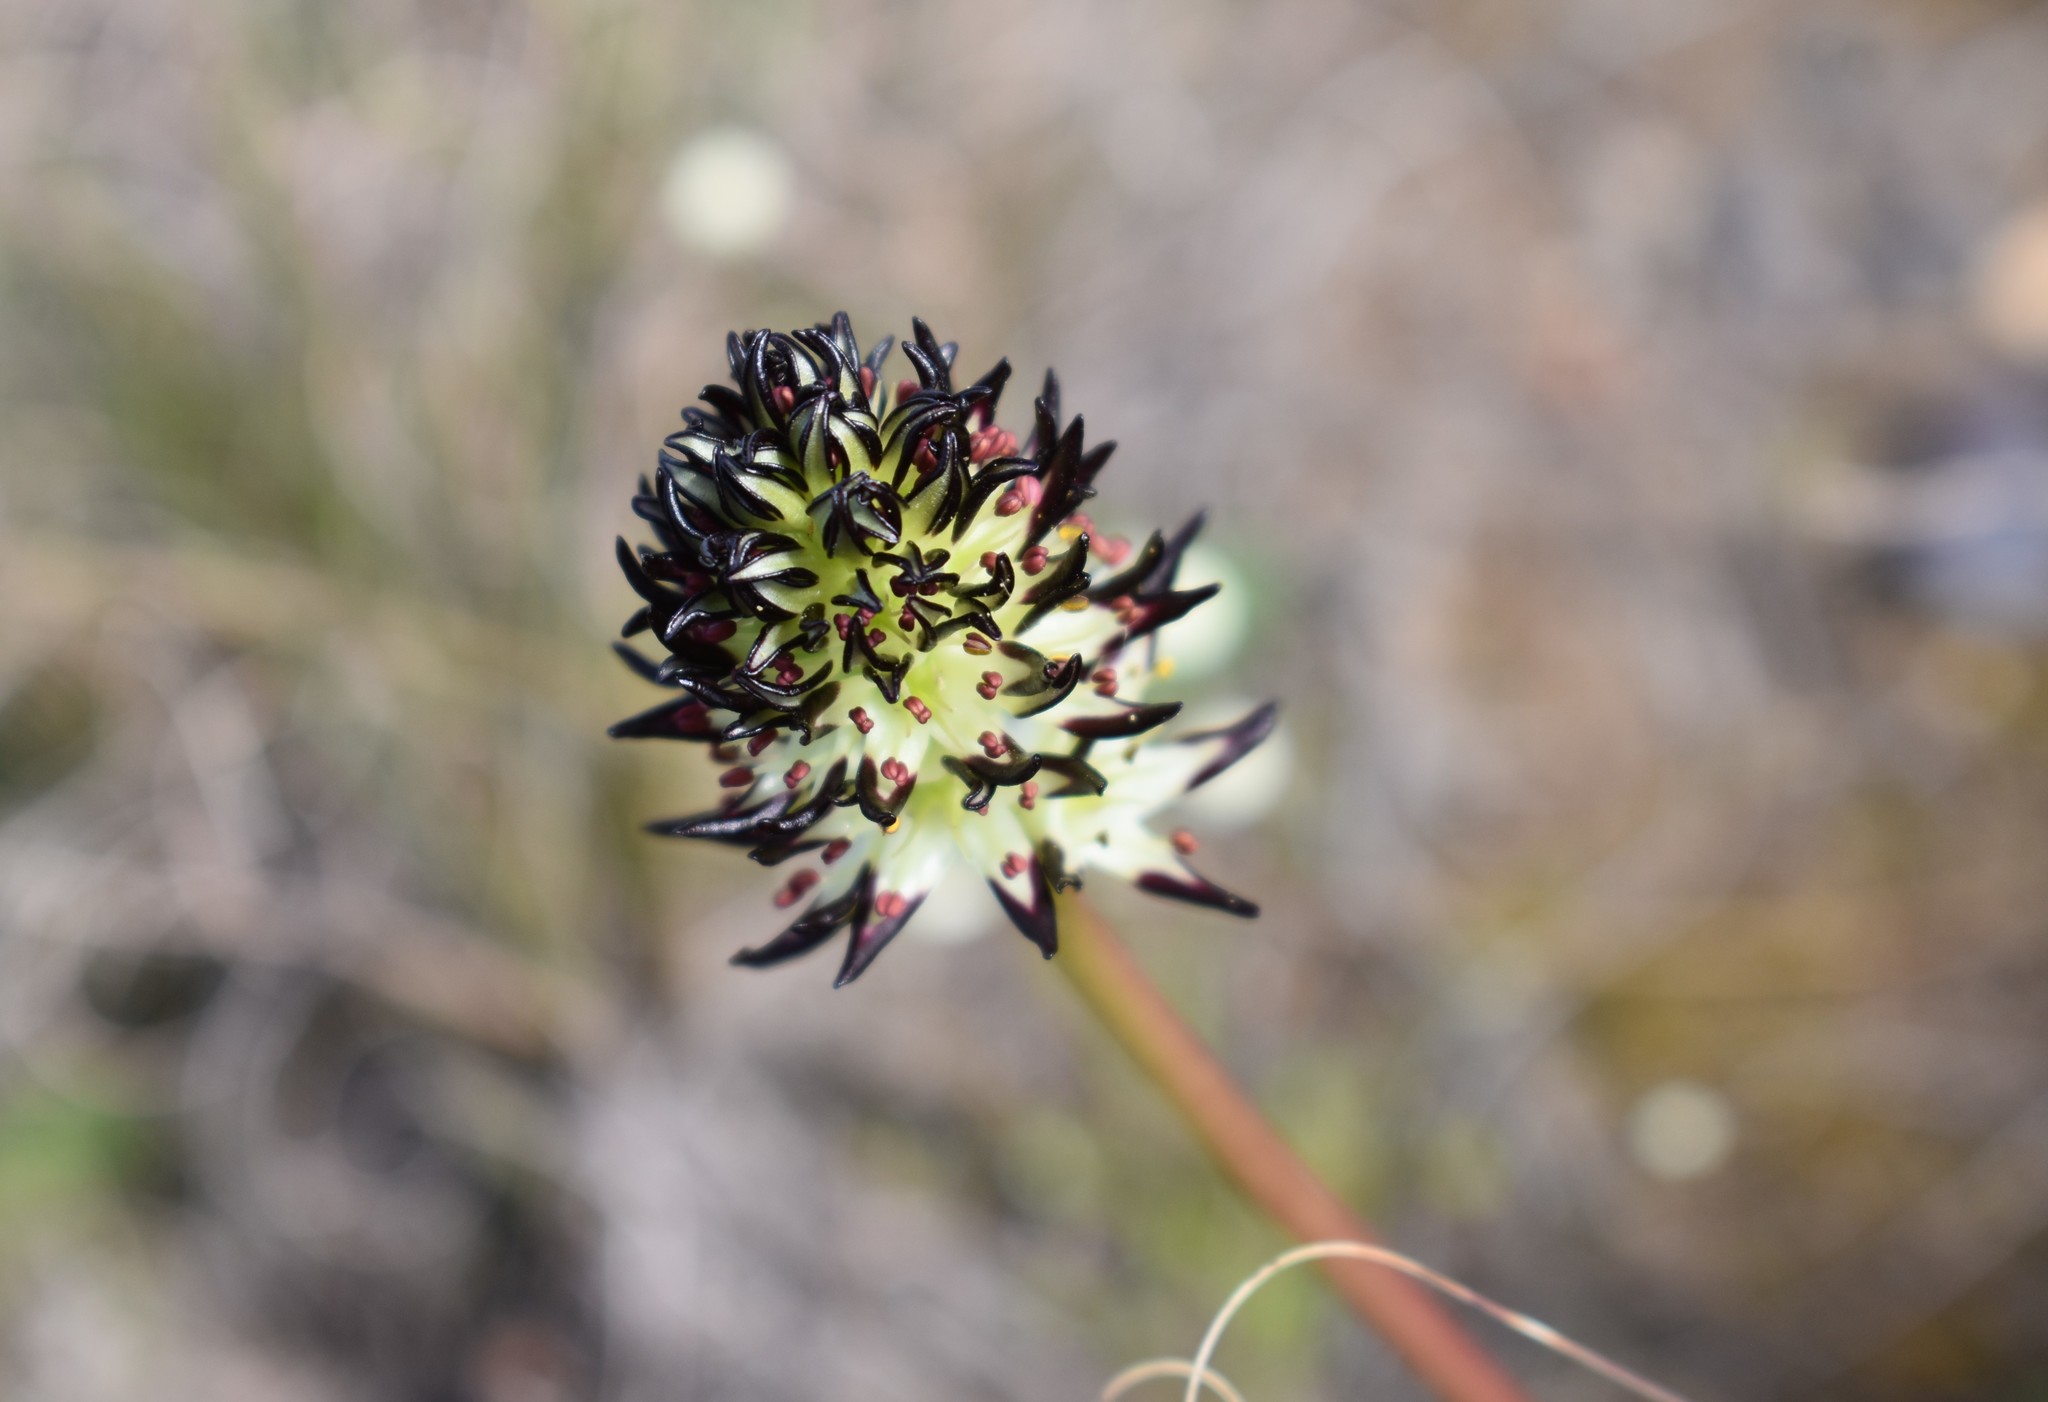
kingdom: Plantae
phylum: Tracheophyta
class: Liliopsida
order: Liliales
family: Colchicaceae
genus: Wurmbea
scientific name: Wurmbea spicata
